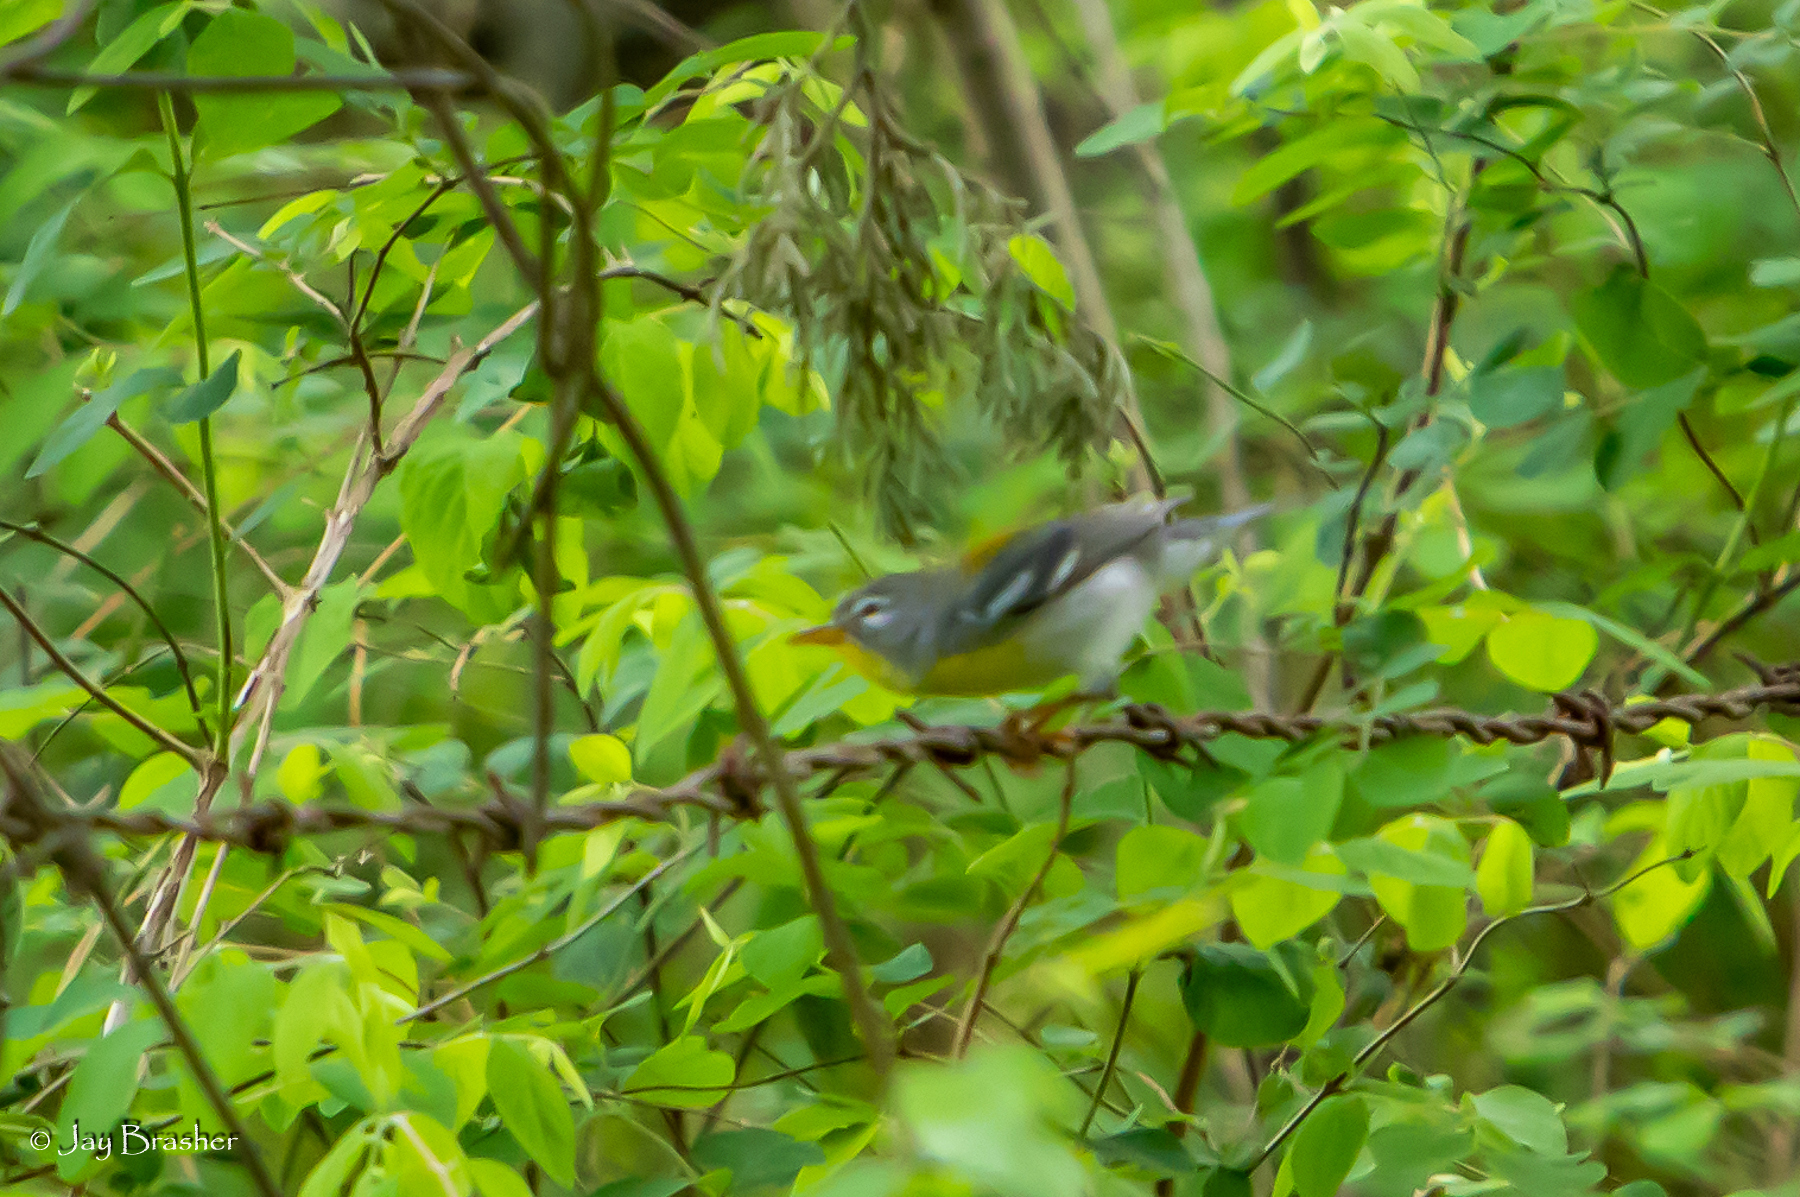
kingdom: Animalia
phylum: Chordata
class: Aves
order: Passeriformes
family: Parulidae
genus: Setophaga
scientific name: Setophaga americana
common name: Northern parula
